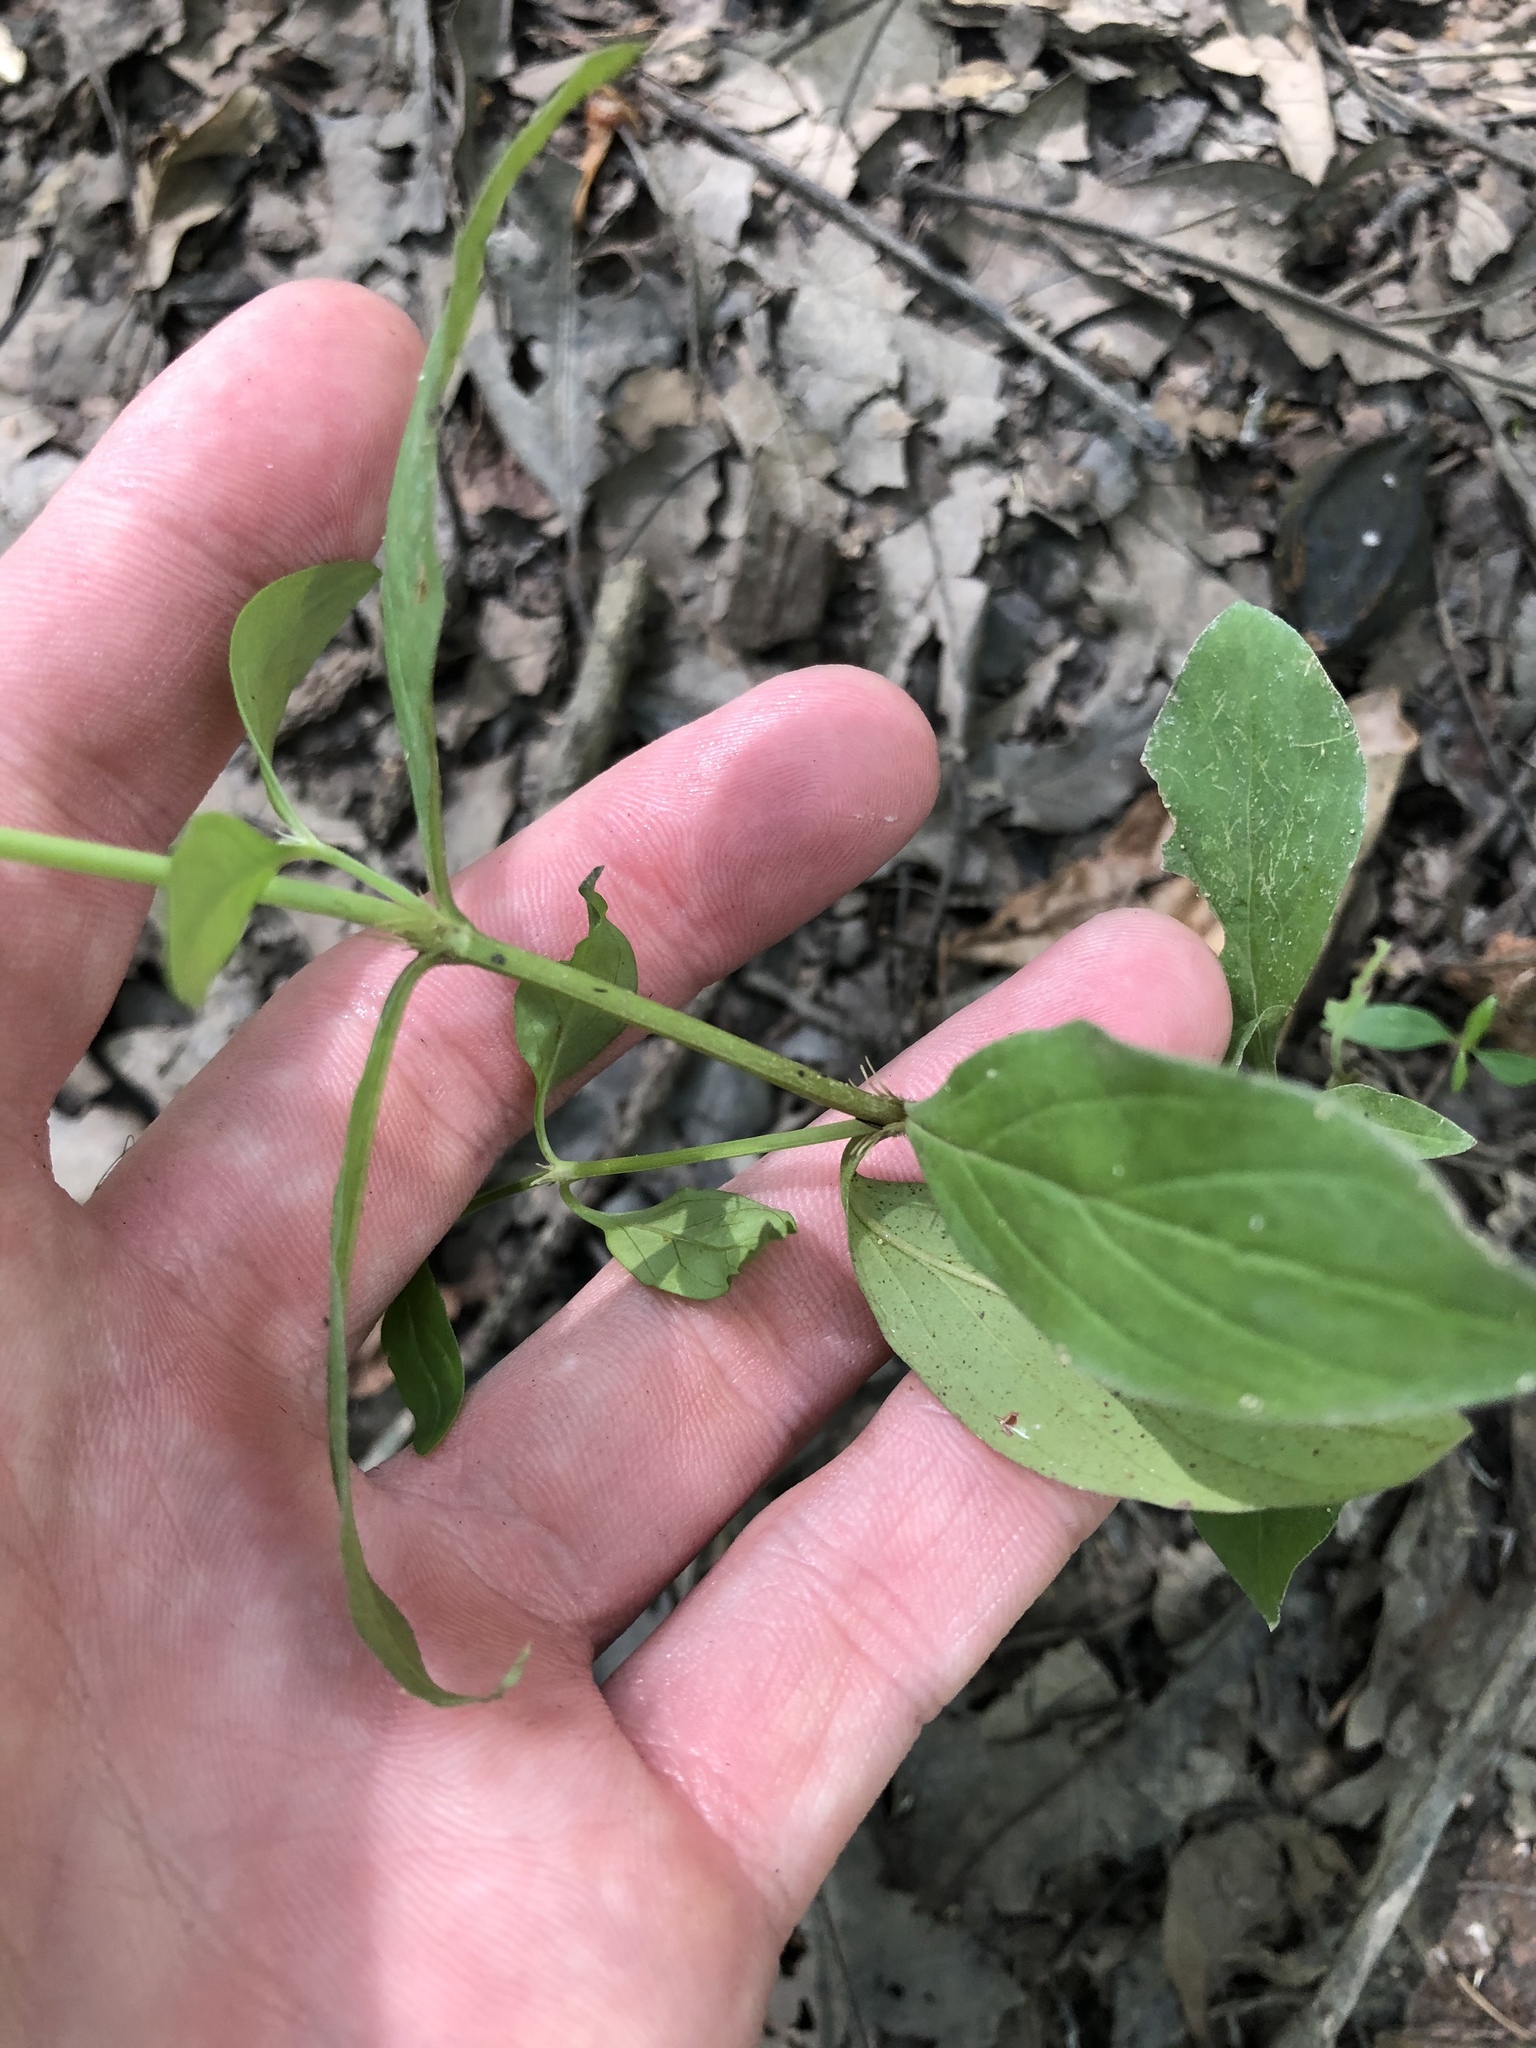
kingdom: Plantae
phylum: Tracheophyta
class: Magnoliopsida
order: Gentianales
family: Rubiaceae
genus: Spermacoce
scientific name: Spermacoce glabra
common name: Smooth buttonweed
